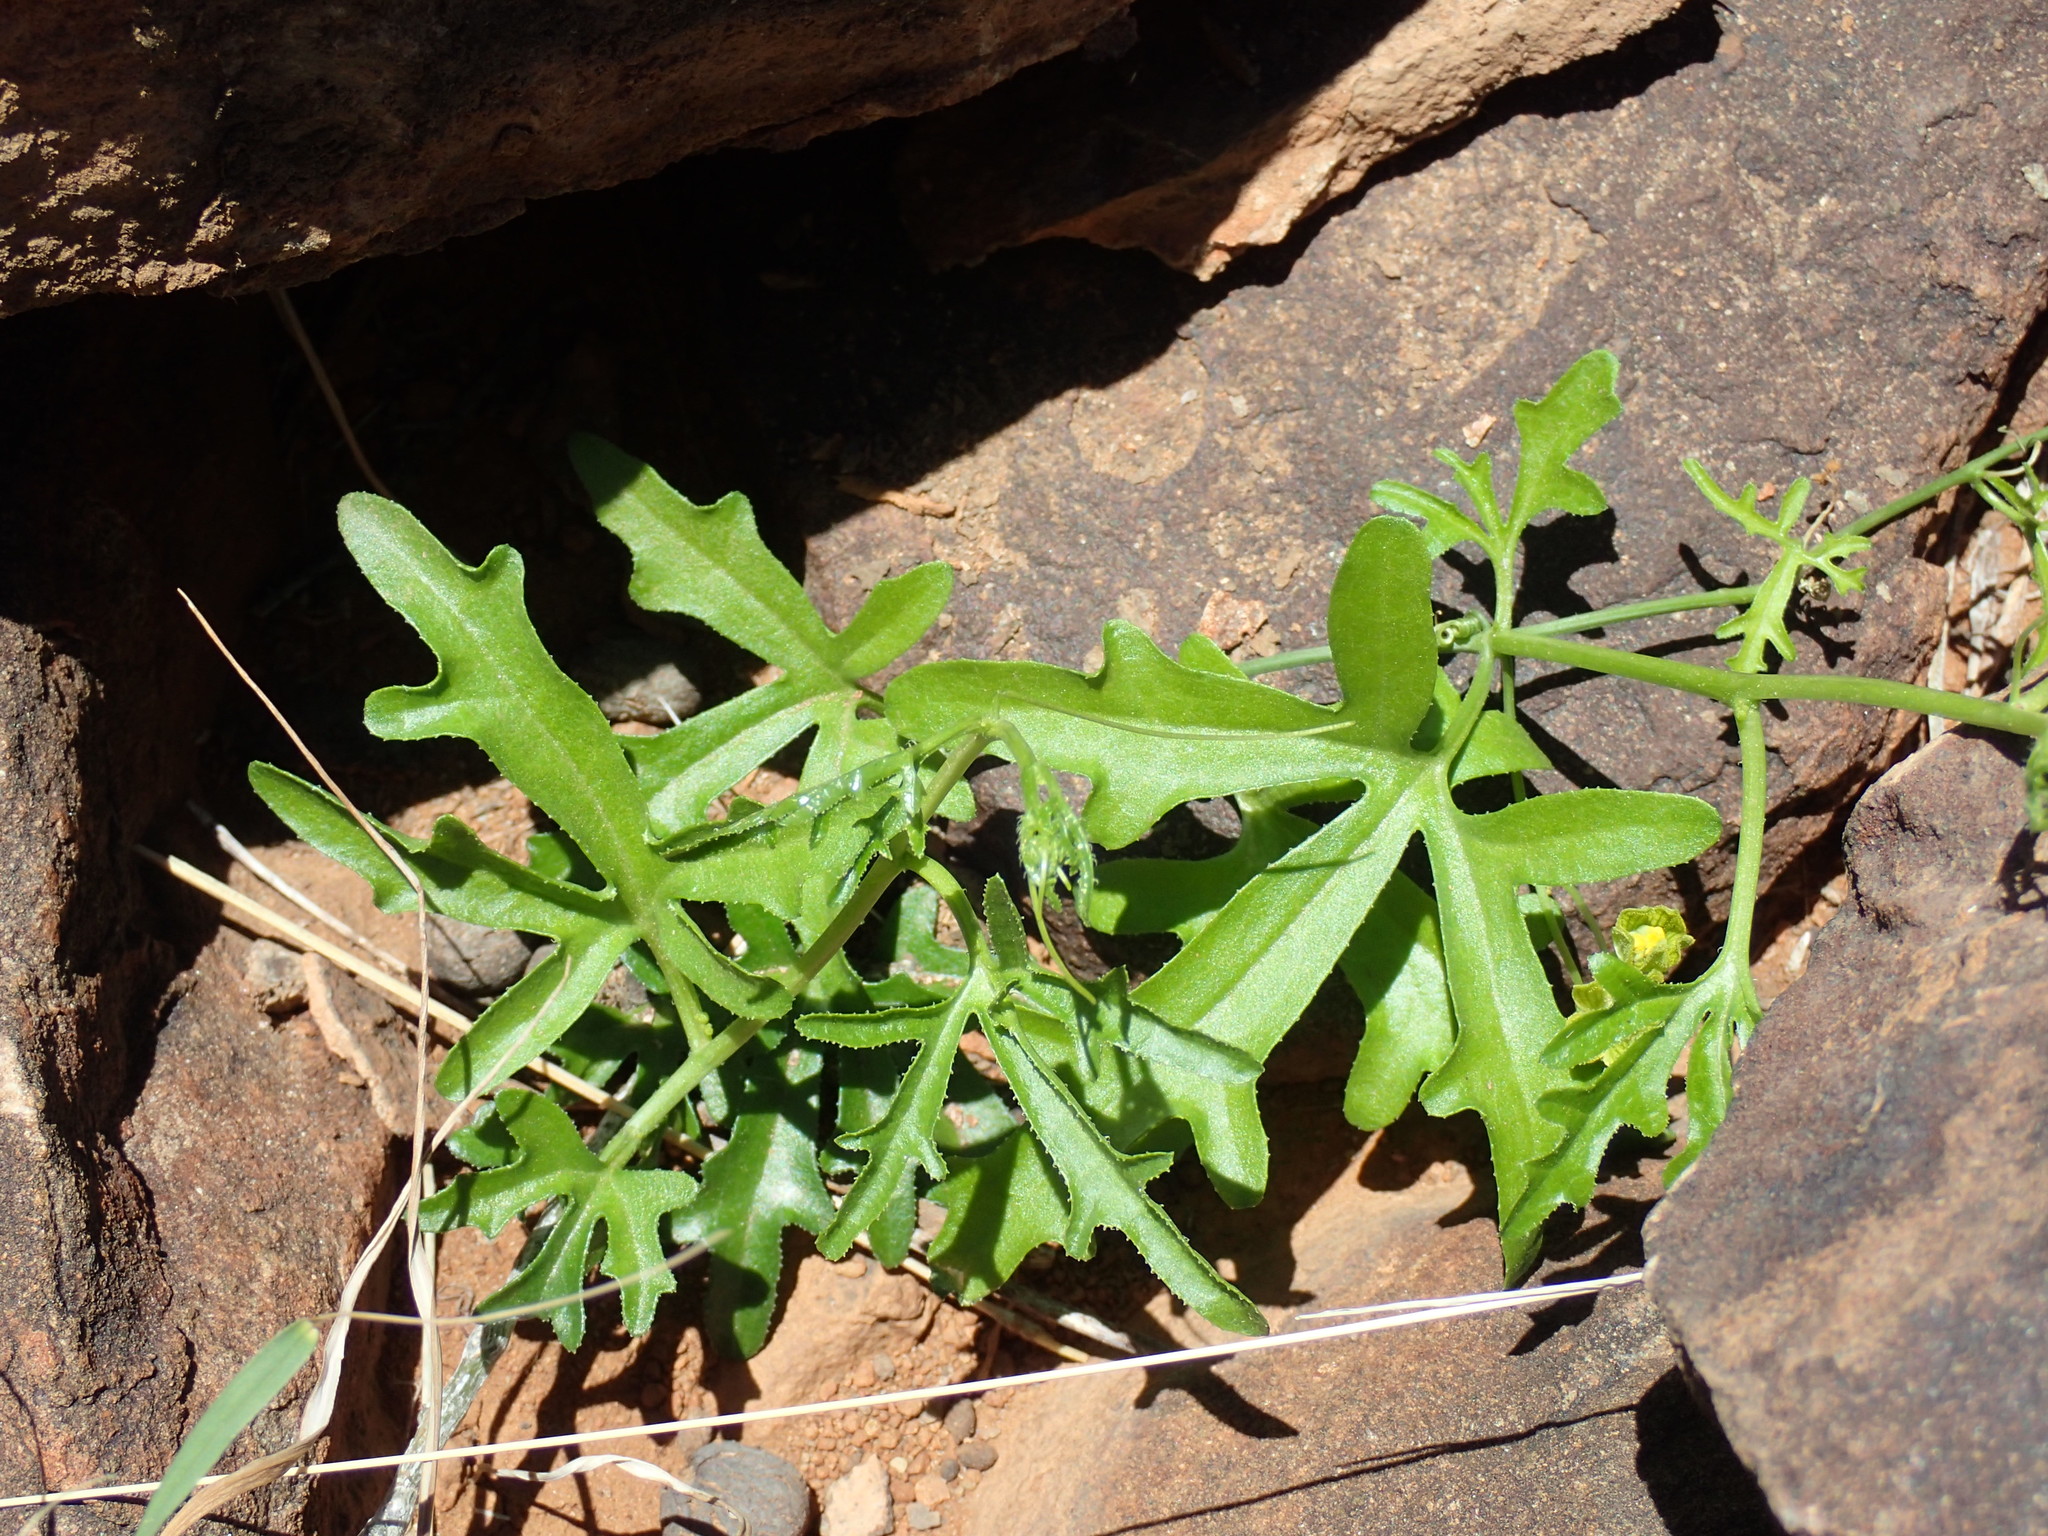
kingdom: Plantae
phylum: Tracheophyta
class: Magnoliopsida
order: Cucurbitales
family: Cucurbitaceae
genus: Kedrostis
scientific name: Kedrostis nana
